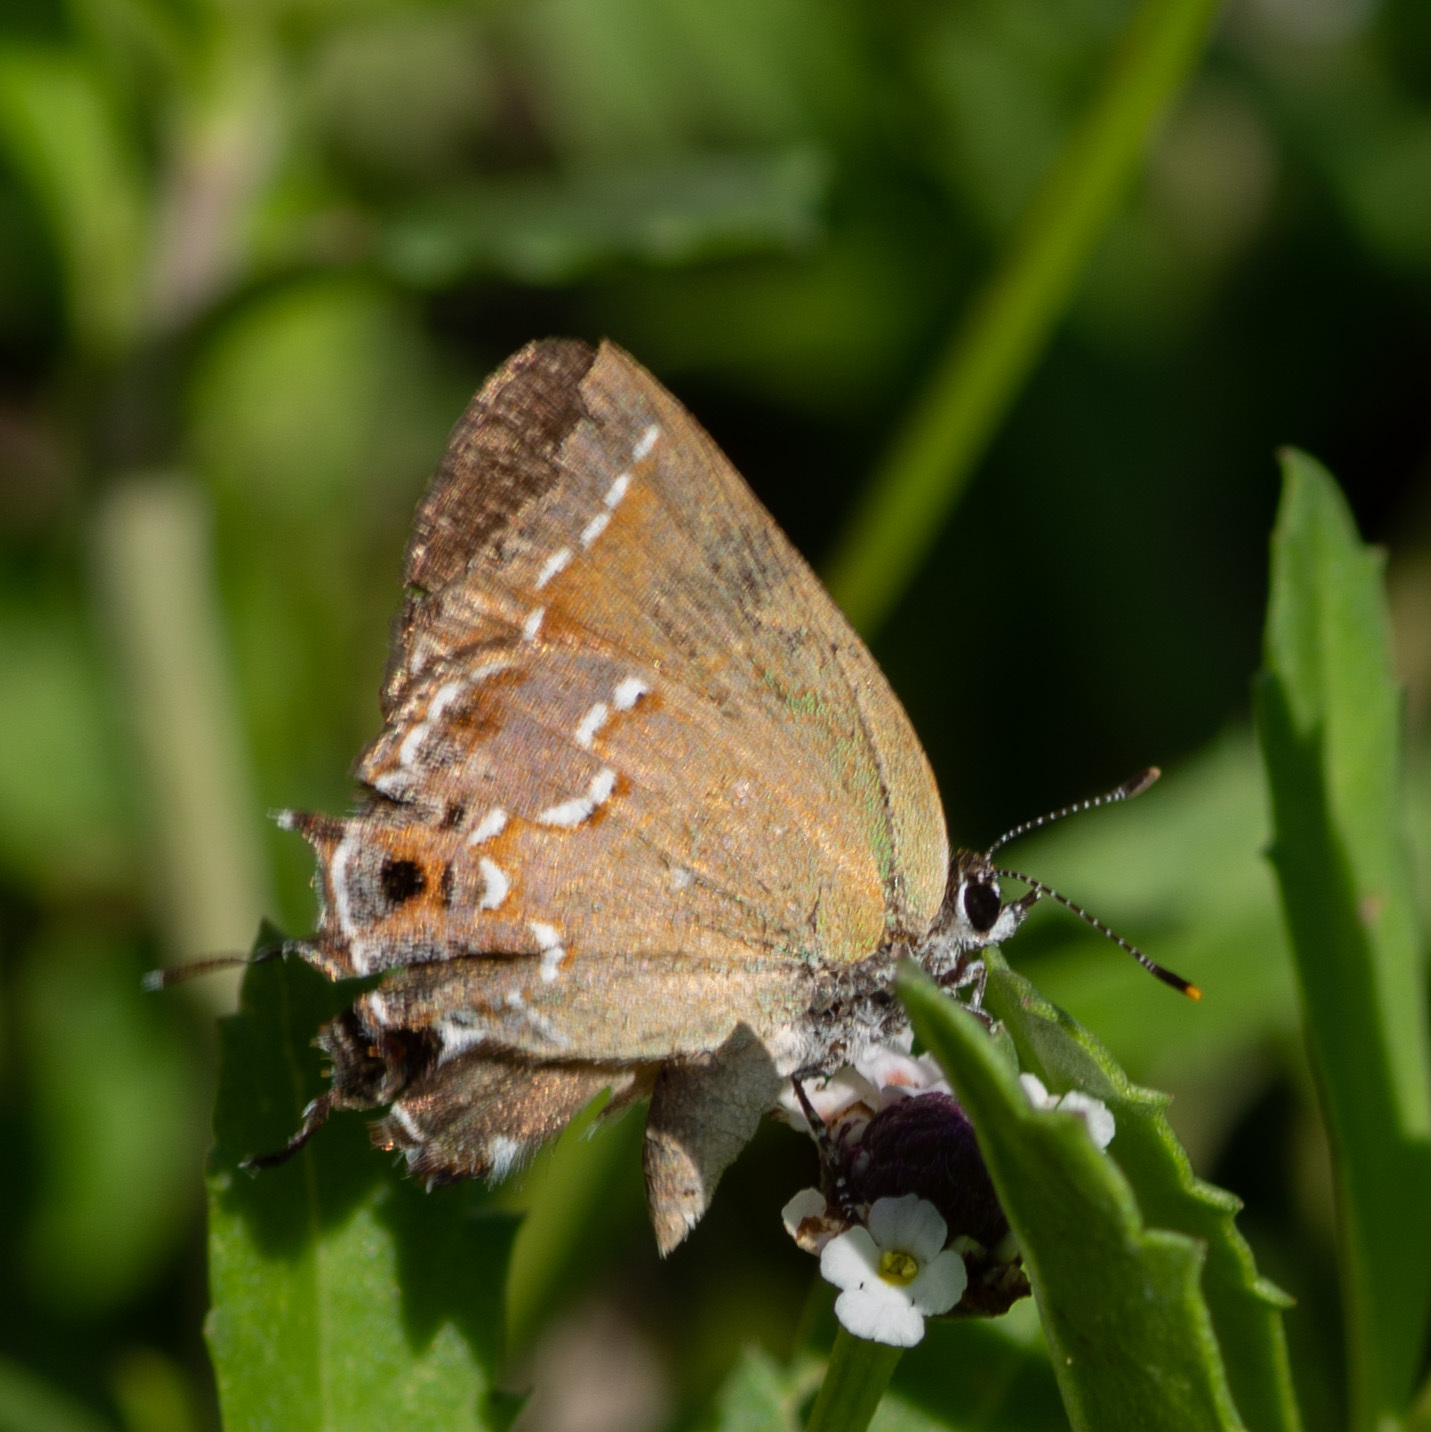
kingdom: Animalia
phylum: Arthropoda
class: Insecta
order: Lepidoptera
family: Lycaenidae
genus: Mitoura
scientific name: Mitoura gryneus
